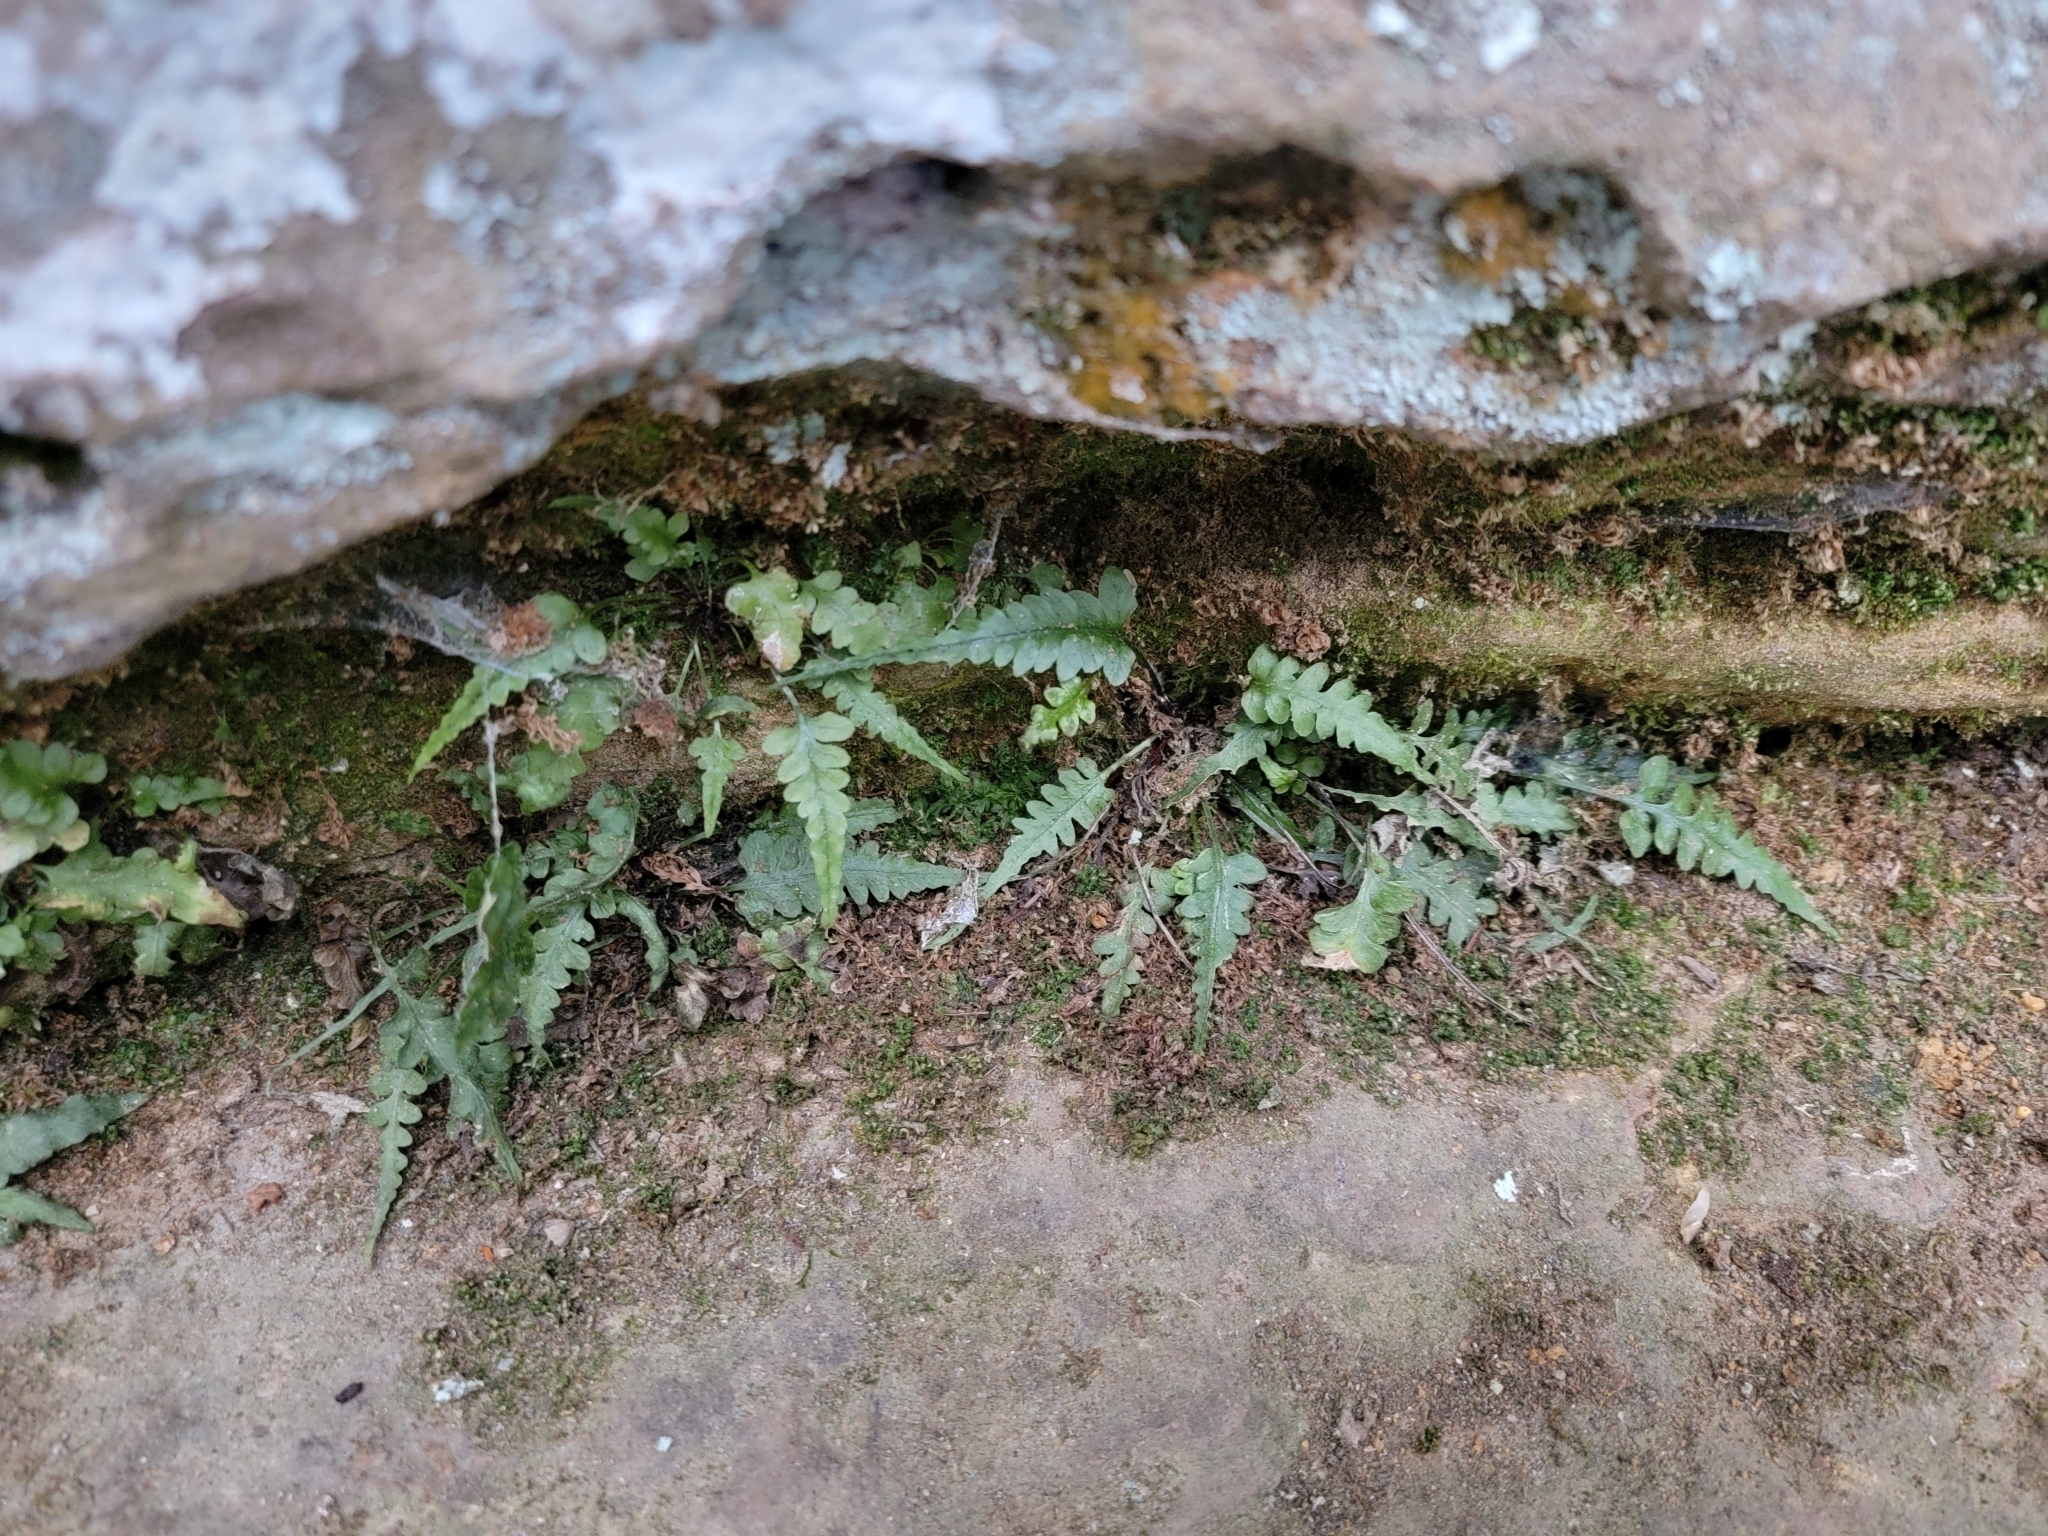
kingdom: Plantae
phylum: Tracheophyta
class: Polypodiopsida
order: Polypodiales
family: Aspleniaceae
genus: Asplenium
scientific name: Asplenium pinnatifidum
